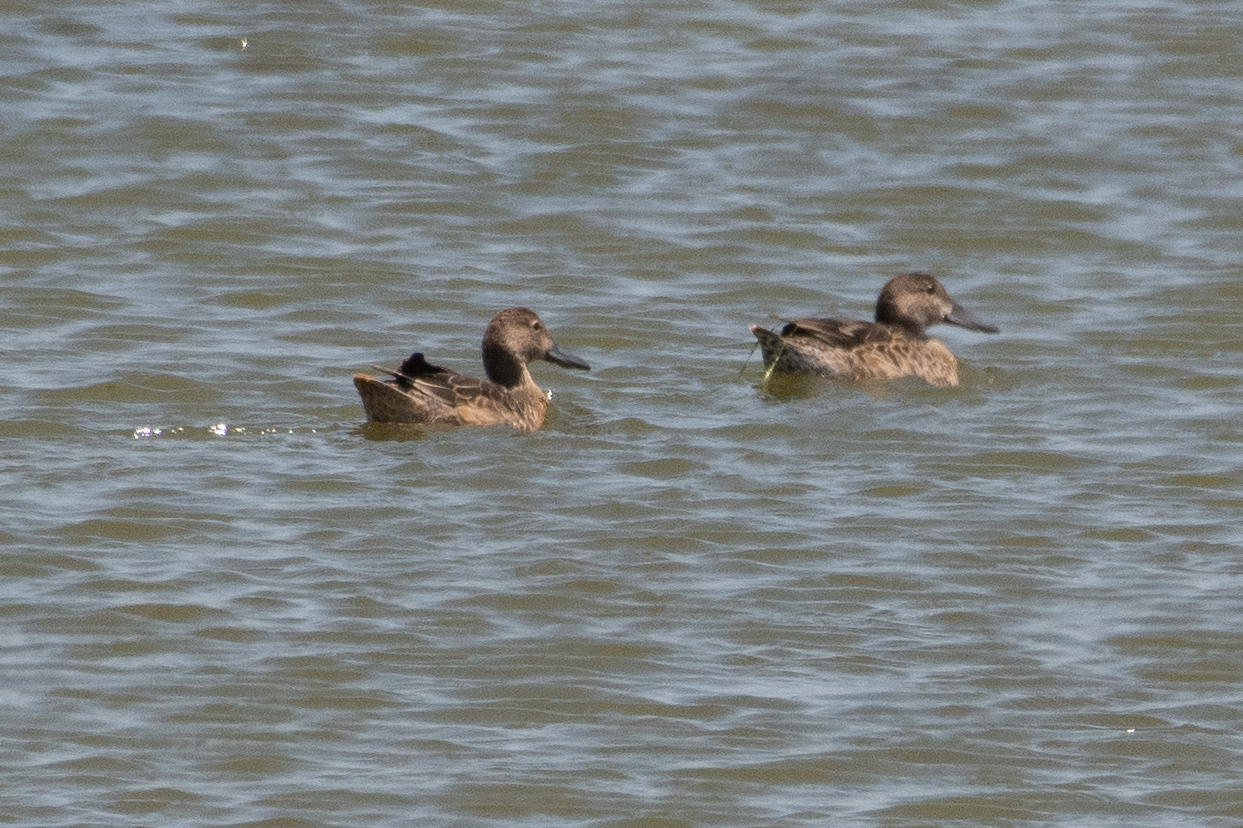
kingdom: Animalia
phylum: Chordata
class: Aves
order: Anseriformes
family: Anatidae
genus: Spatula
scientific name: Spatula cyanoptera
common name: Cinnamon teal
